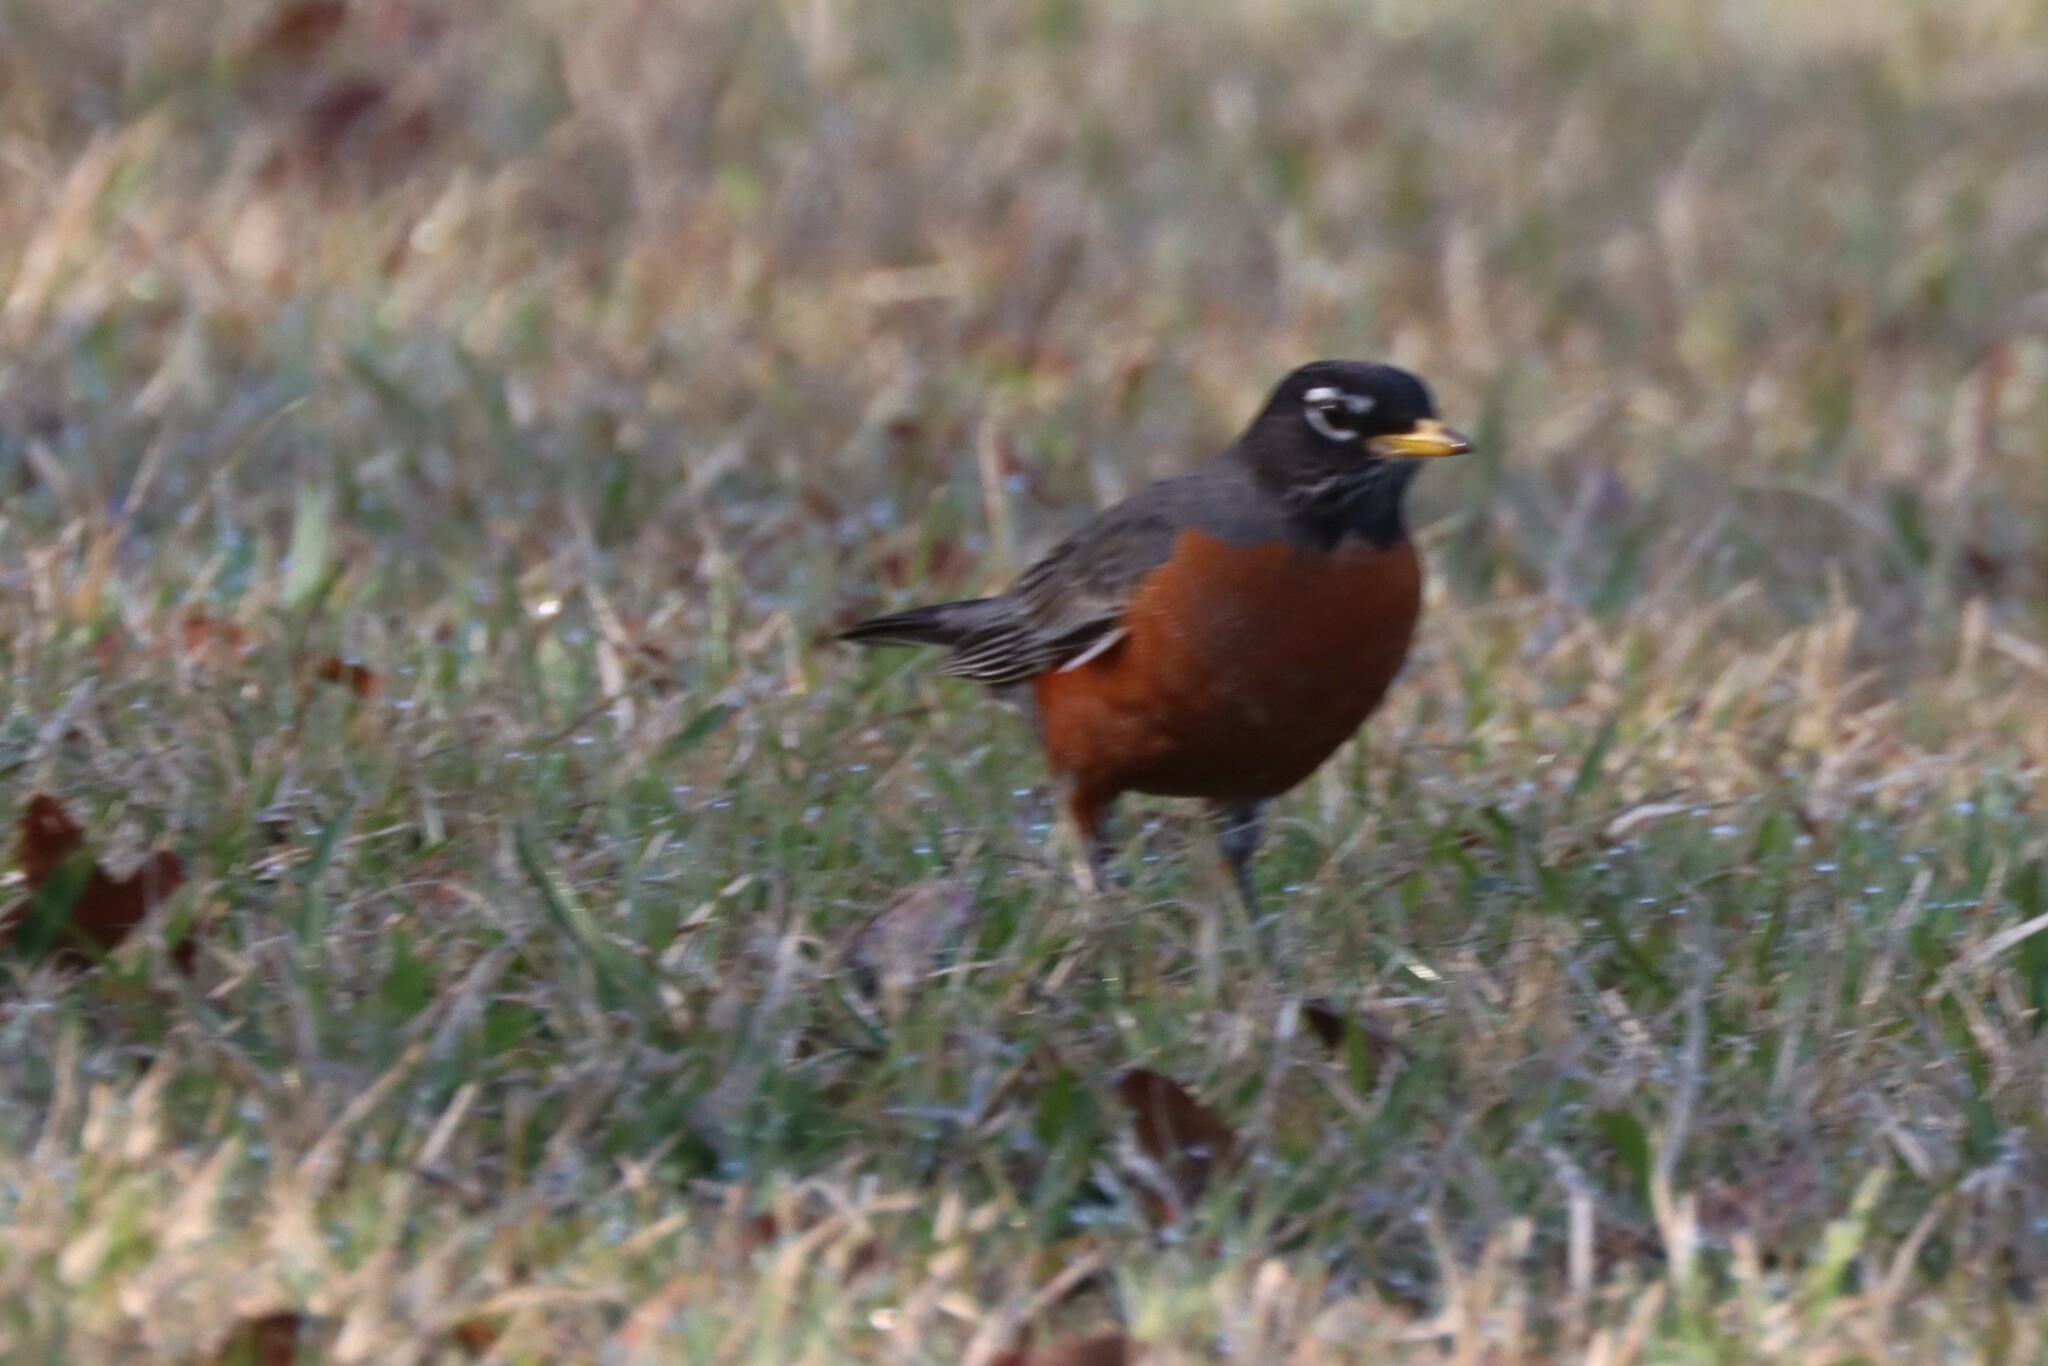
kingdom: Animalia
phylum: Chordata
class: Aves
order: Passeriformes
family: Turdidae
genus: Turdus
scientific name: Turdus migratorius
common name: American robin
